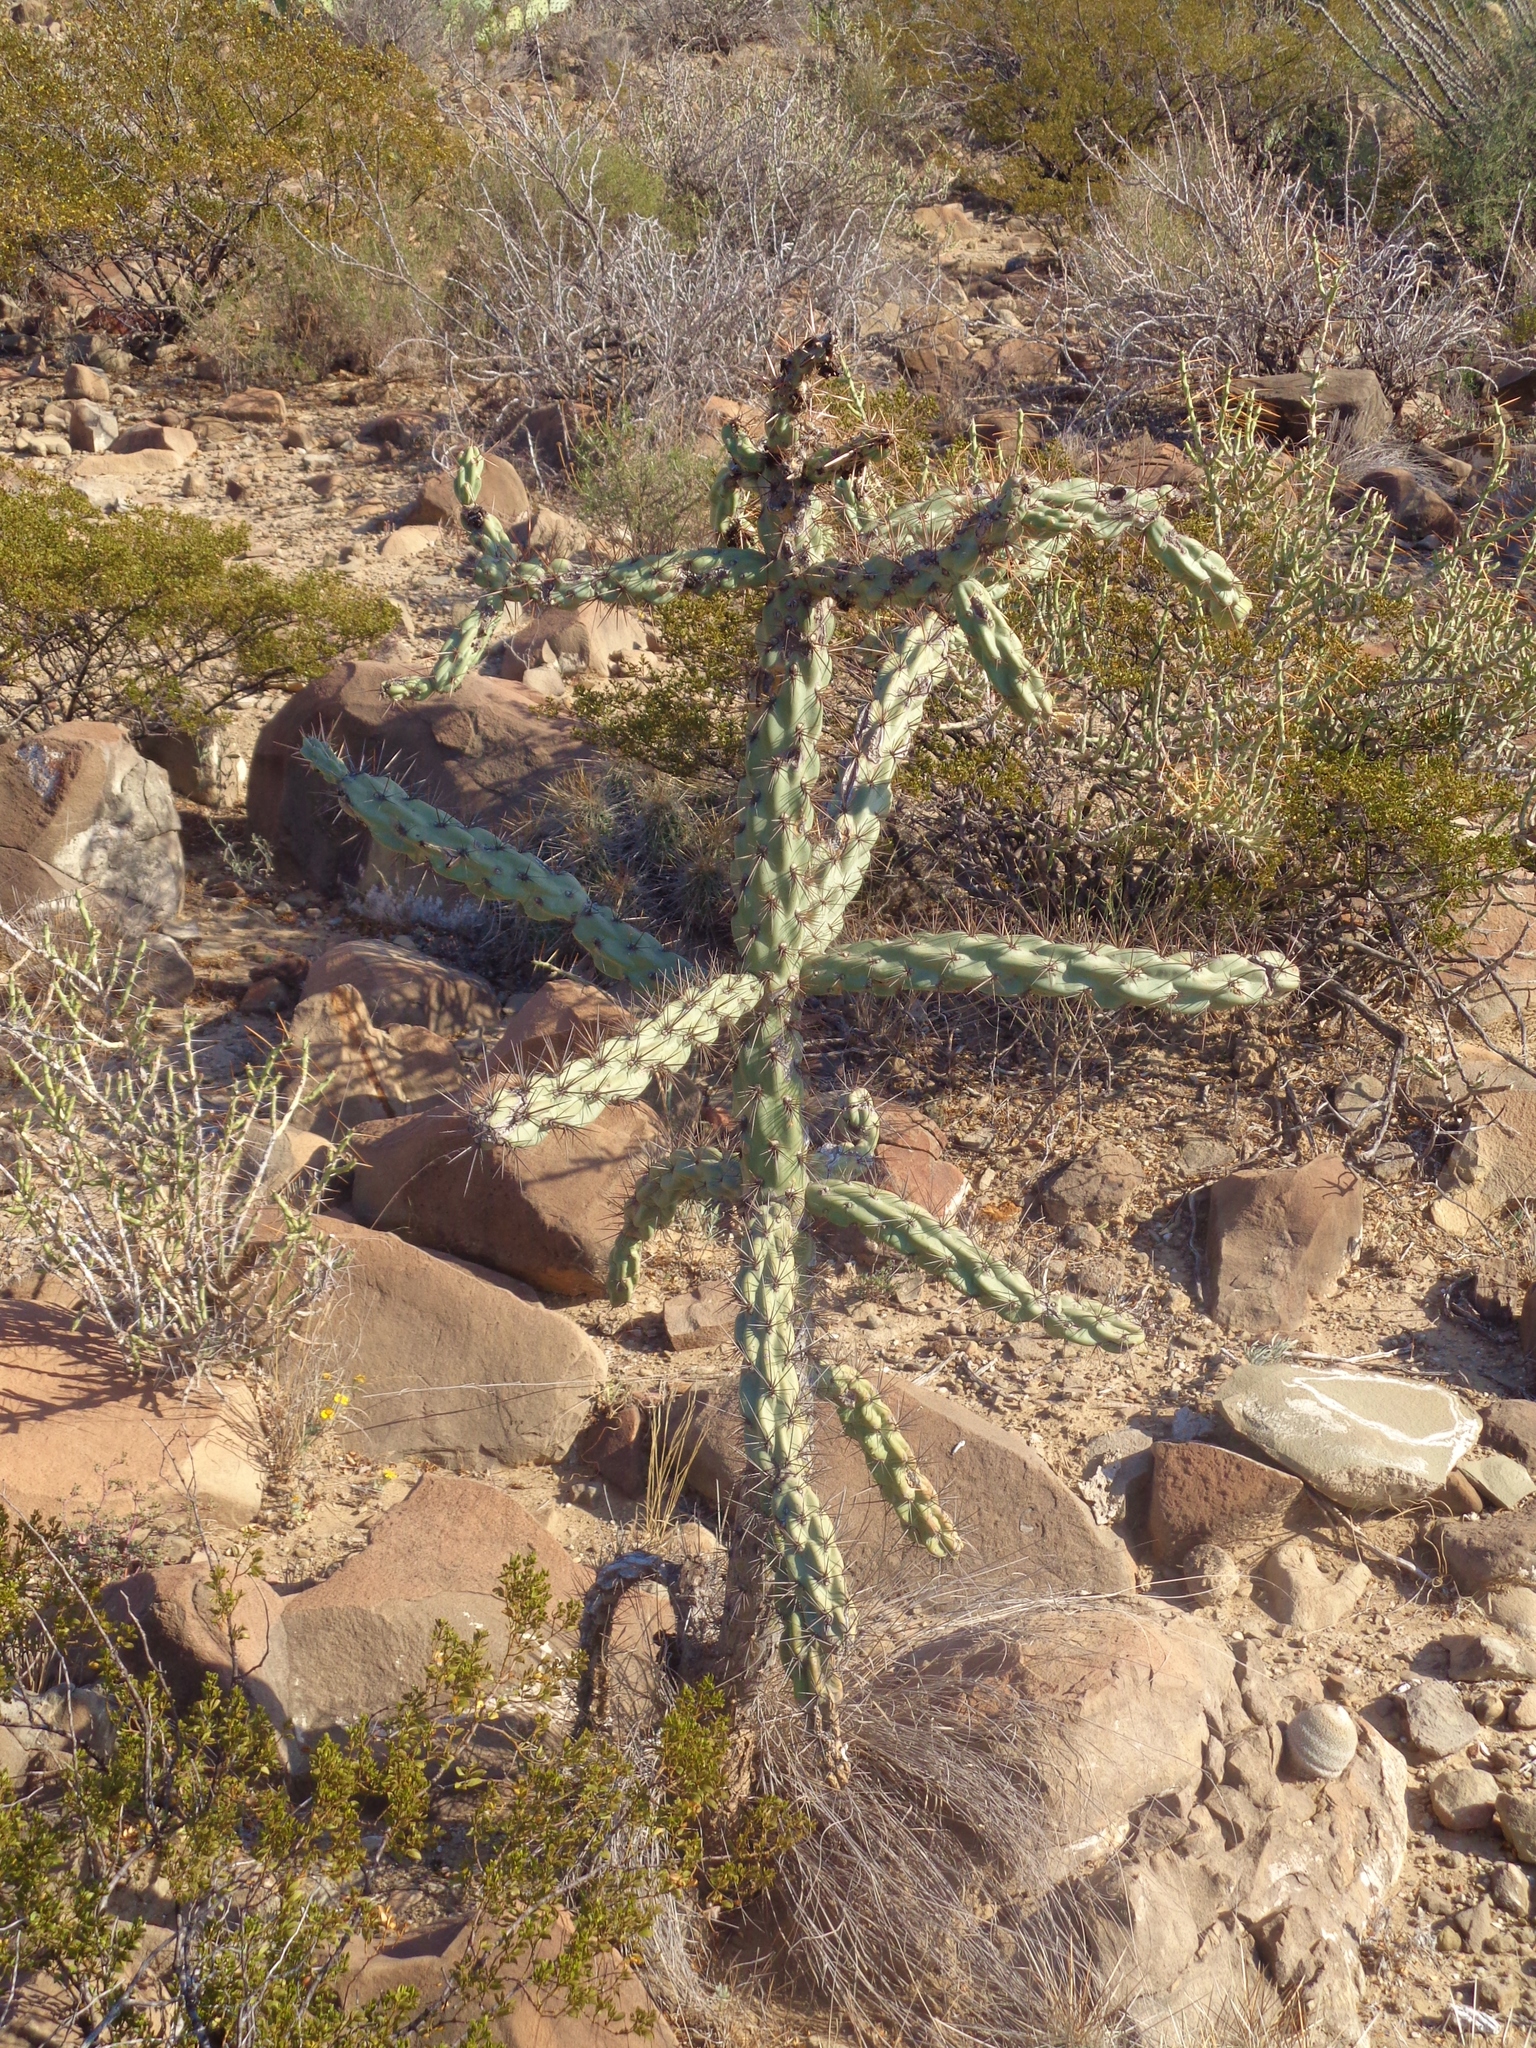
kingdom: Plantae
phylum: Tracheophyta
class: Magnoliopsida
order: Caryophyllales
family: Cactaceae
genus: Cylindropuntia
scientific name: Cylindropuntia imbricata
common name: Candelabrum cactus
